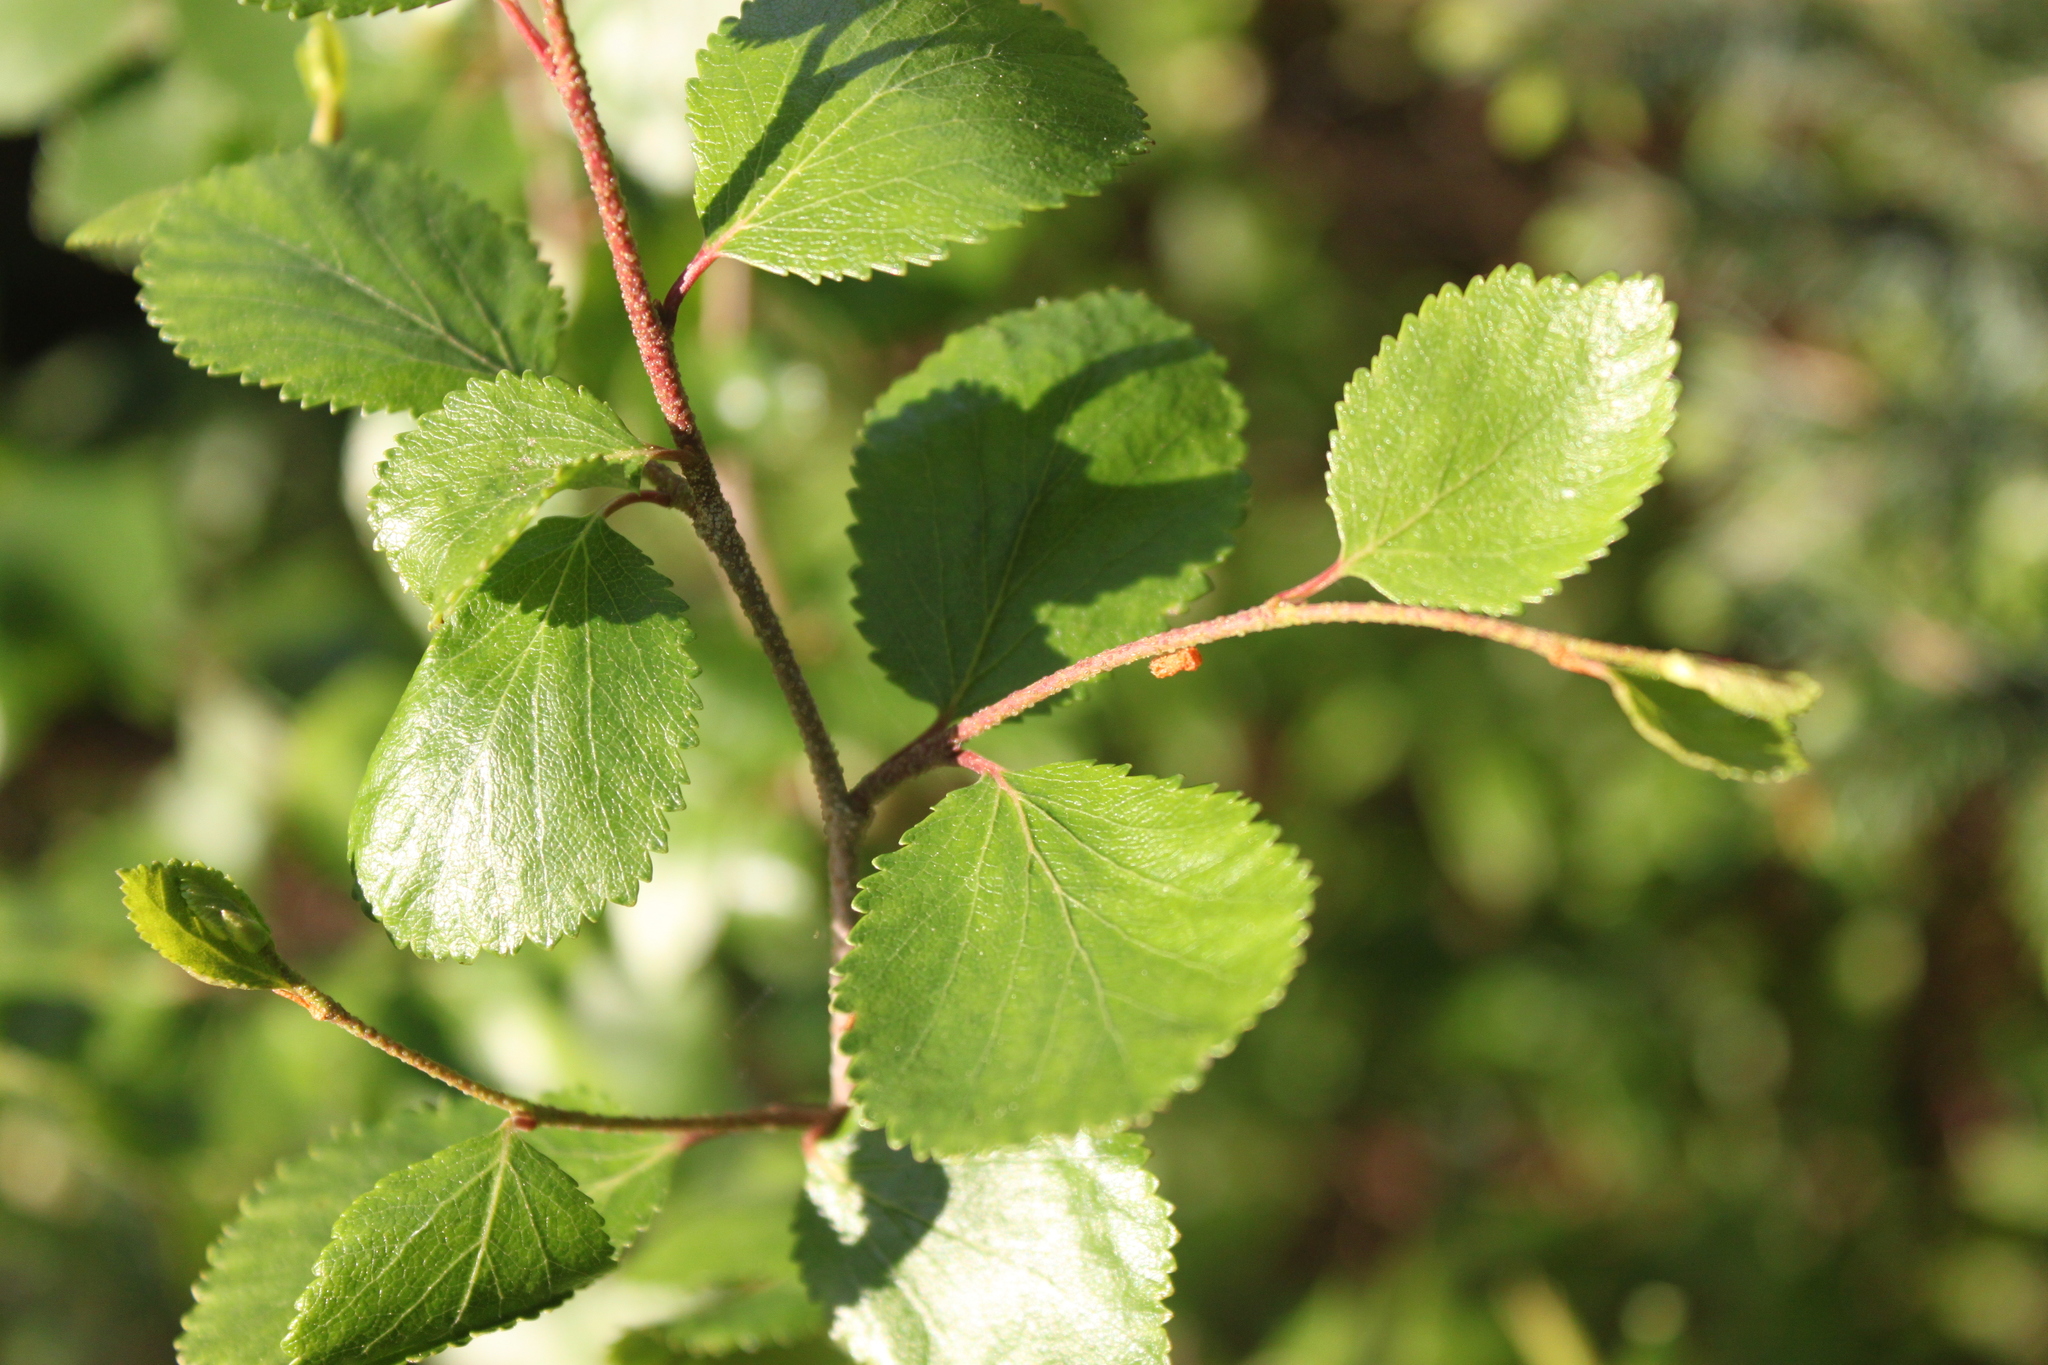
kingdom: Plantae
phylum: Tracheophyta
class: Magnoliopsida
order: Fagales
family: Betulaceae
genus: Betula
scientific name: Betula glandulosa
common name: Dwarf birch
